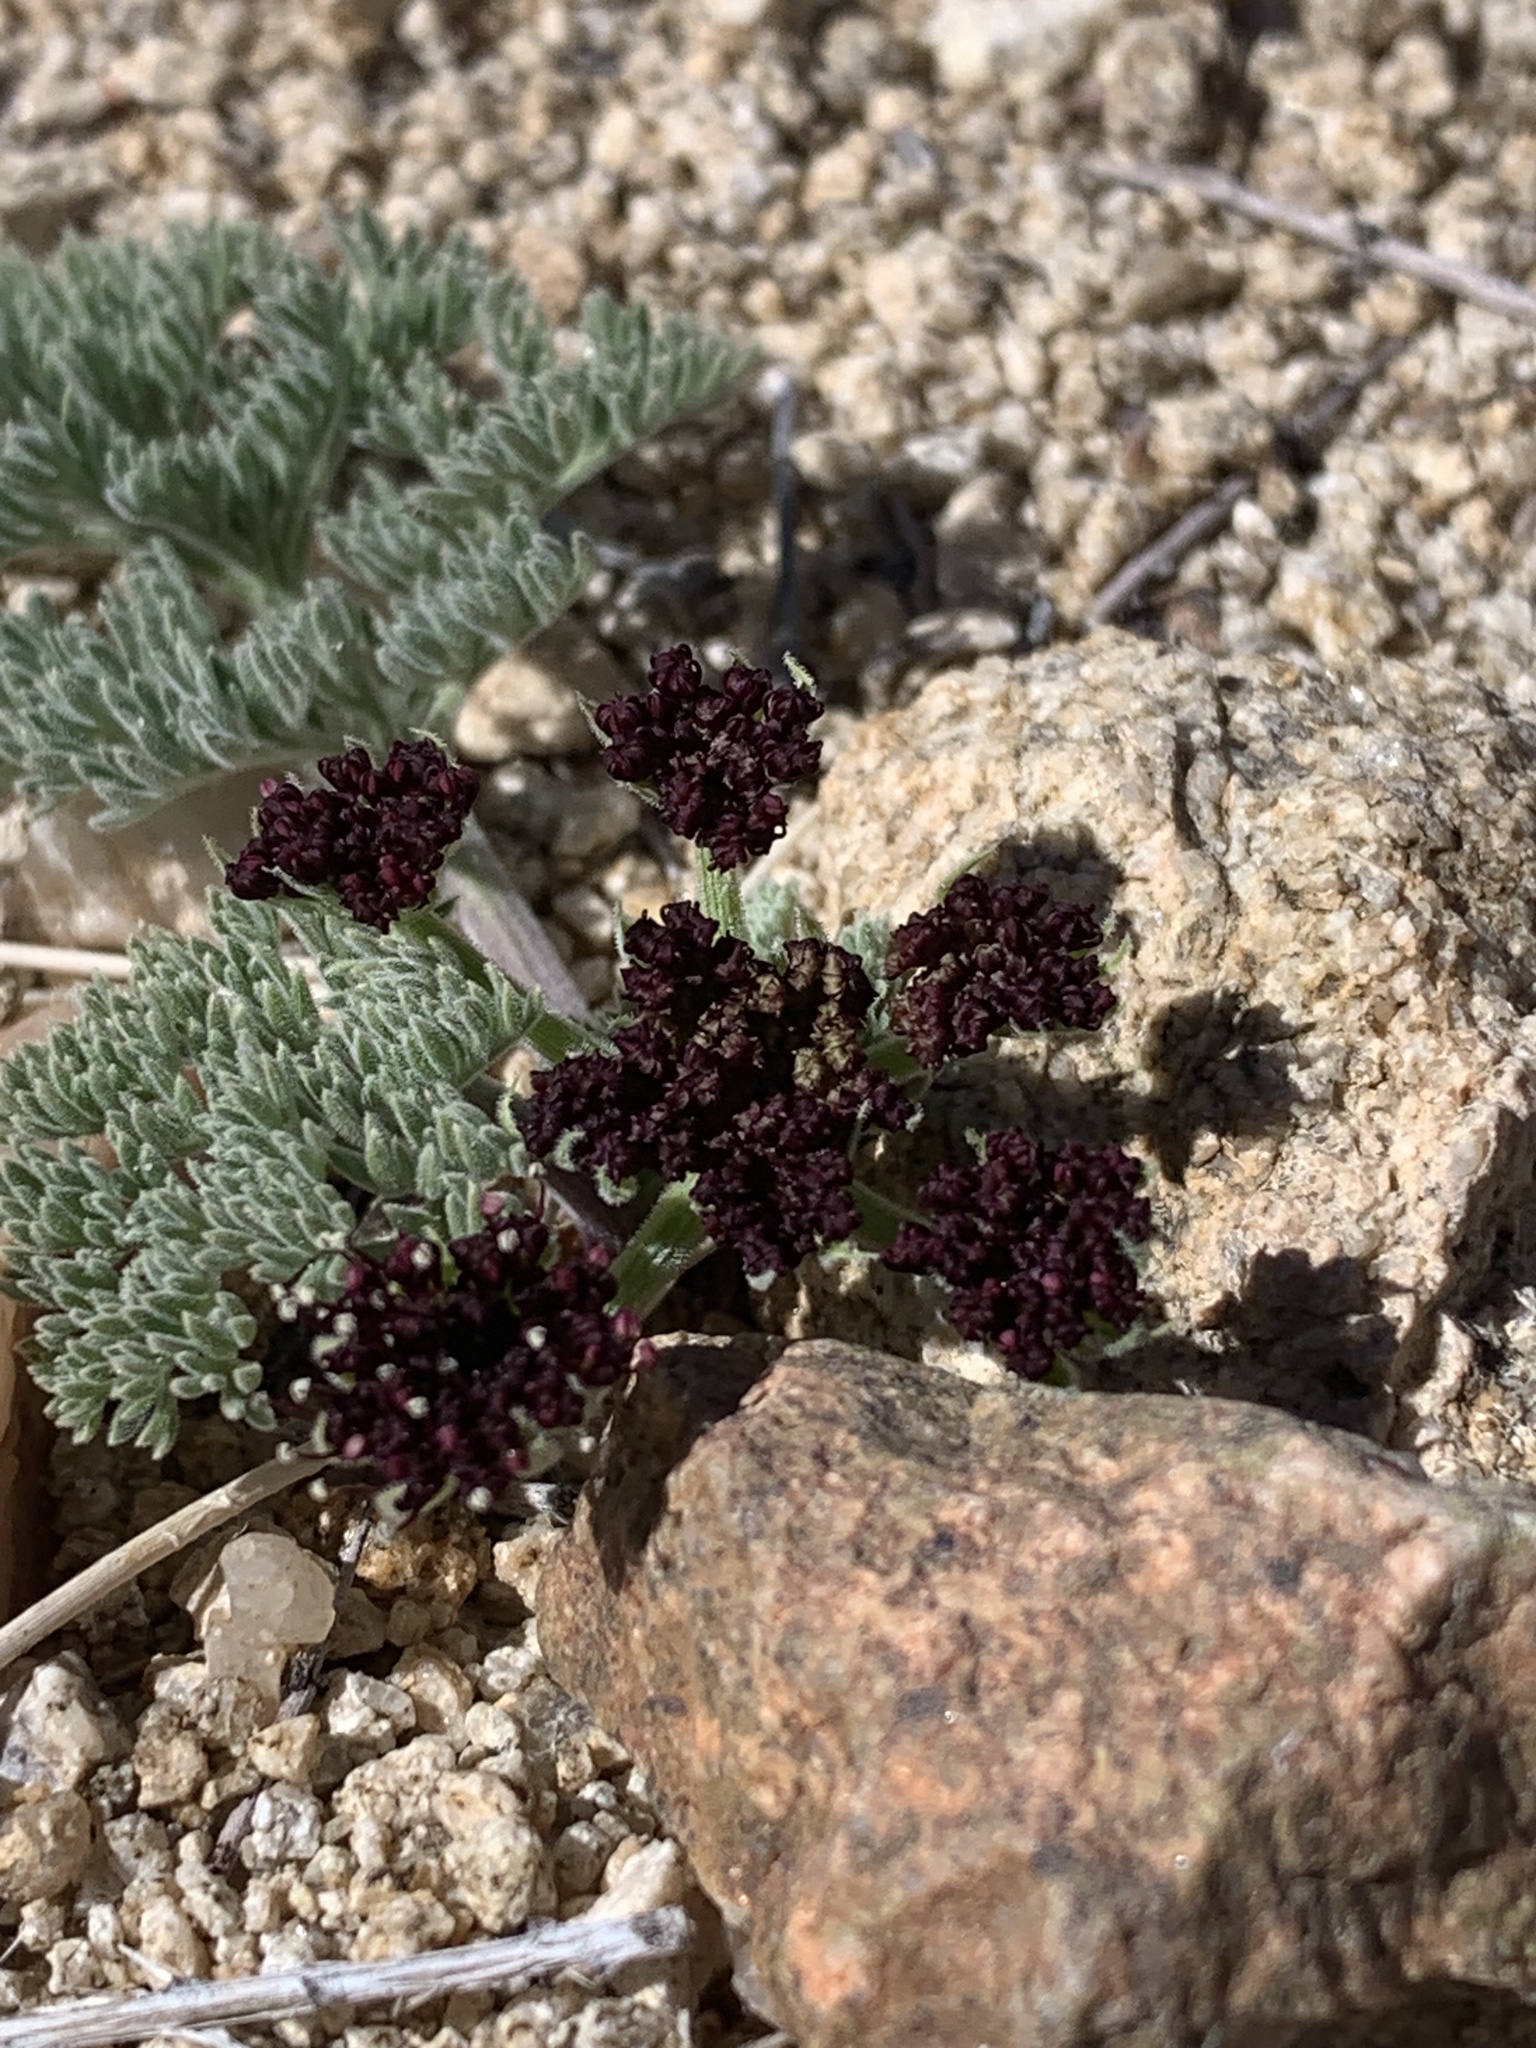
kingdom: Plantae
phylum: Tracheophyta
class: Magnoliopsida
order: Apiales
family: Apiaceae
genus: Lomatium
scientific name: Lomatium mohavense
